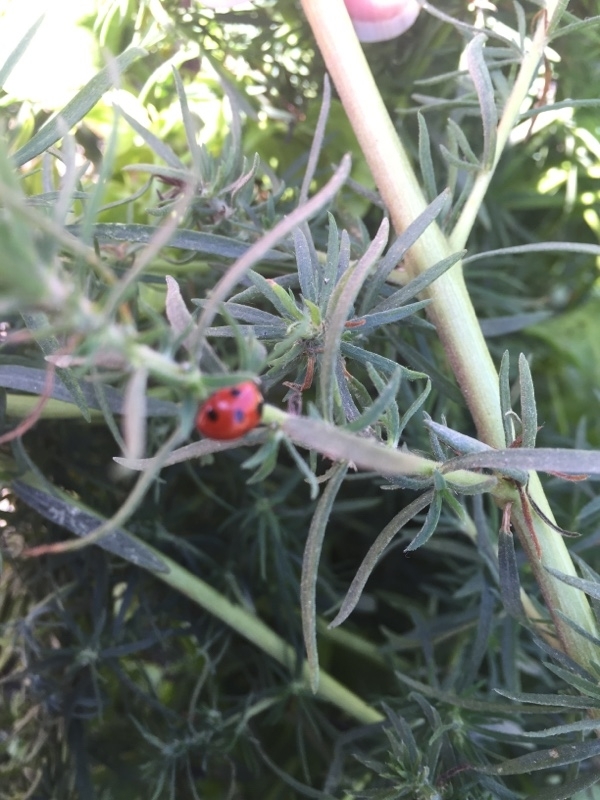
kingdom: Animalia
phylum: Arthropoda
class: Insecta
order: Coleoptera
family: Coccinellidae
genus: Coccinella
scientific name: Coccinella algerica
